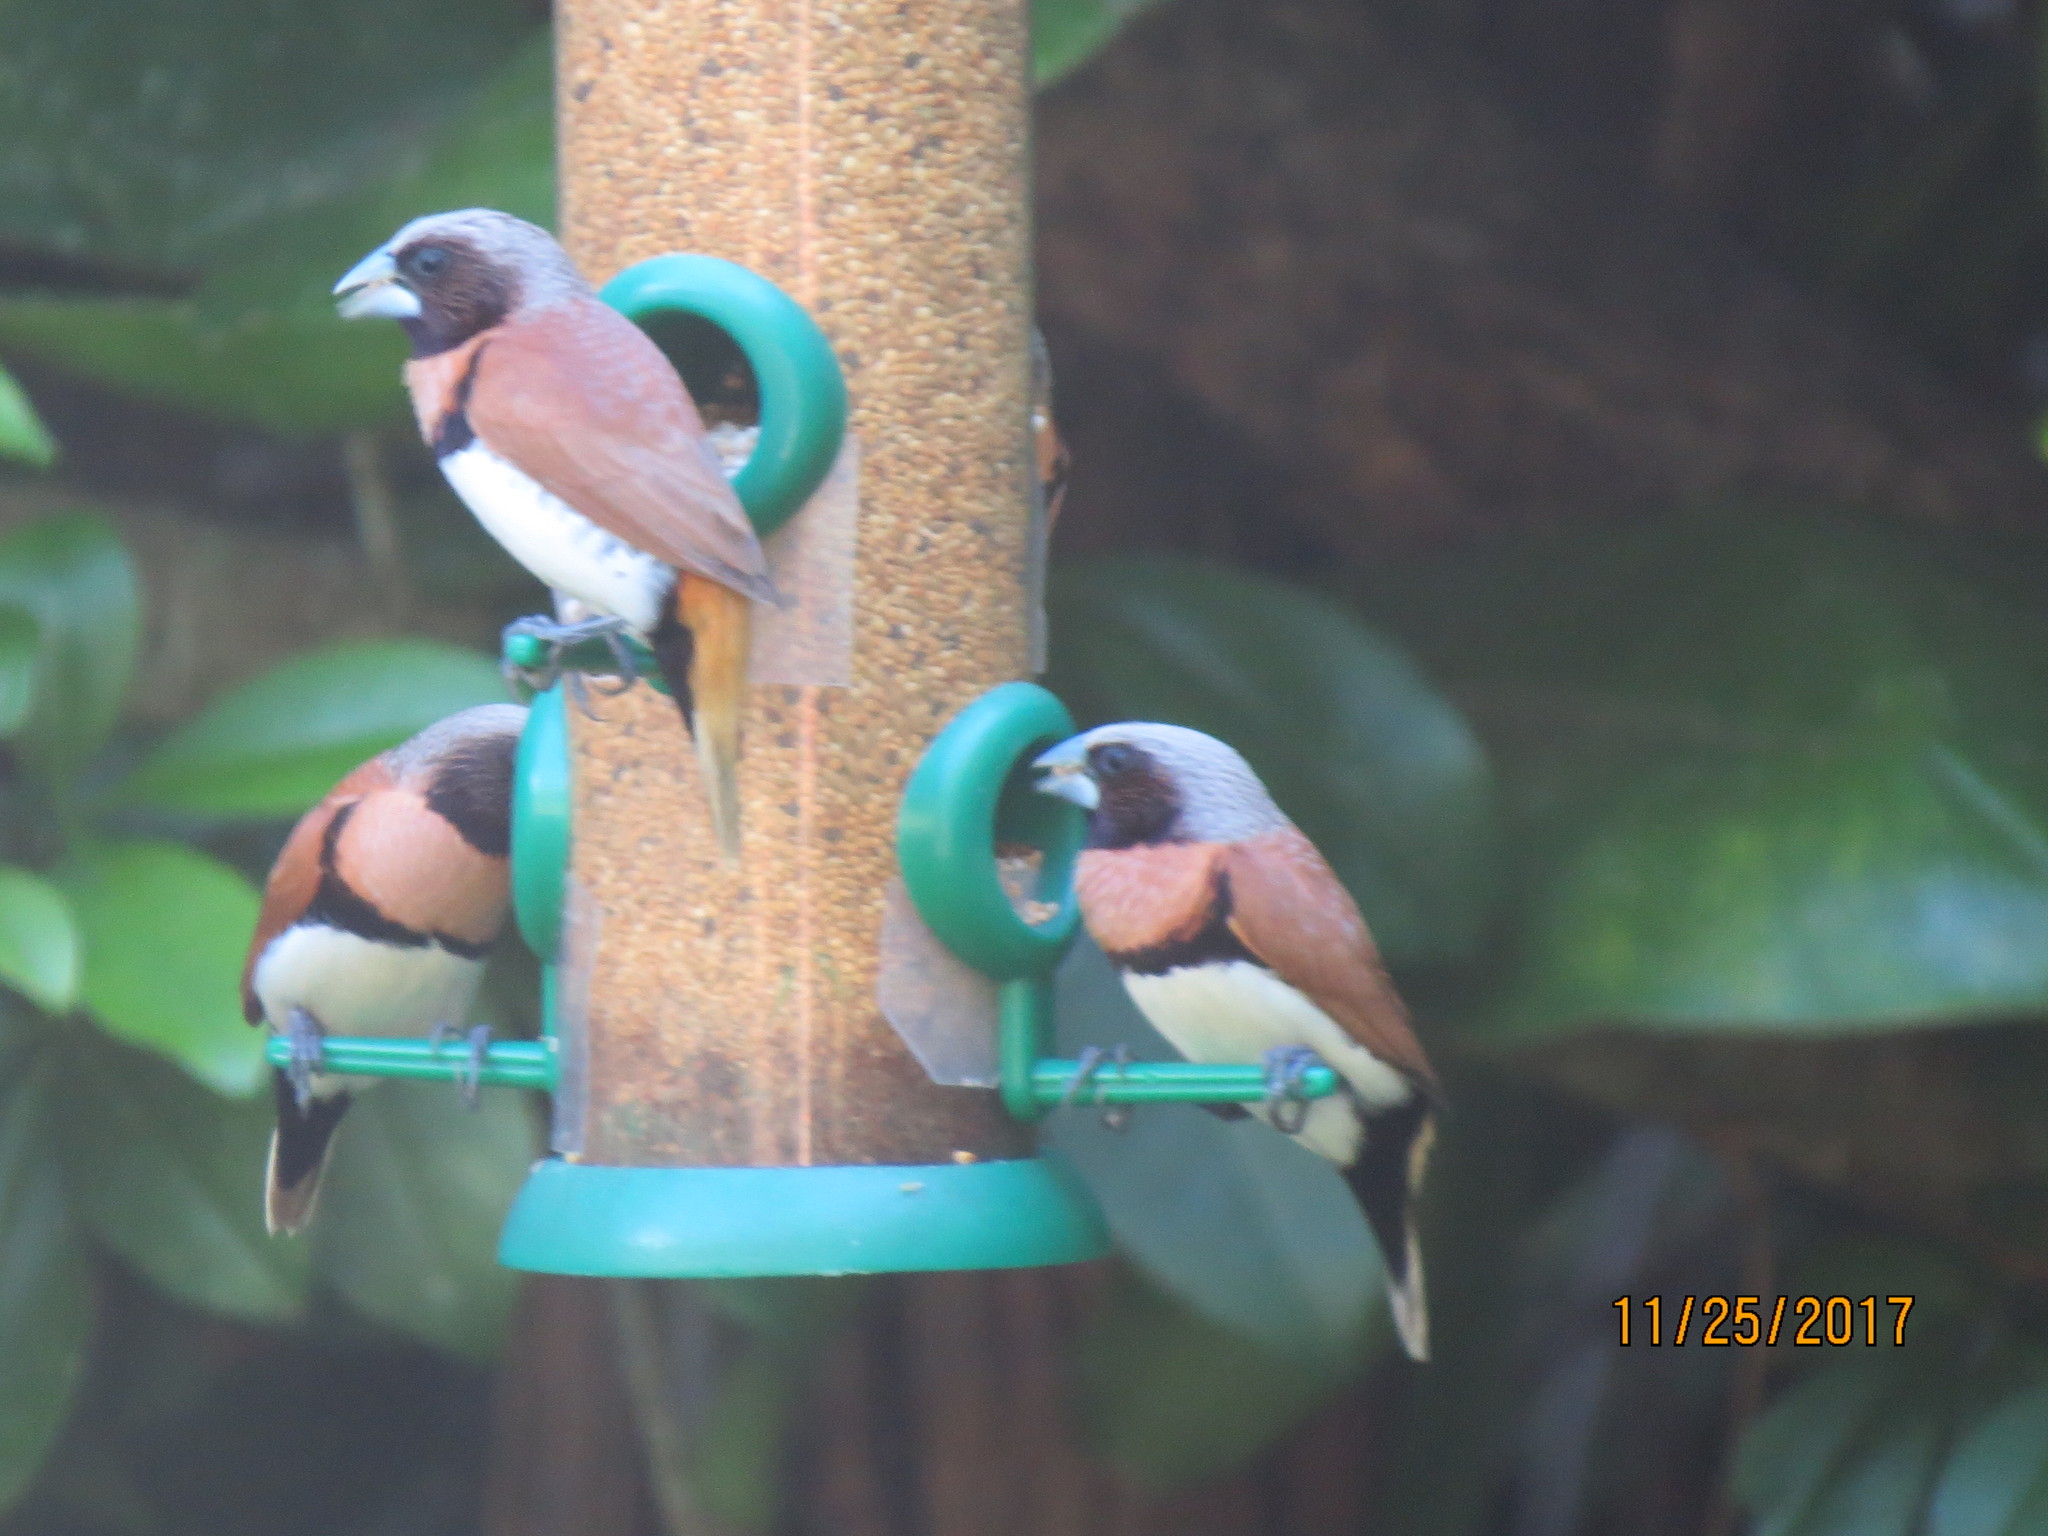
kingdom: Animalia
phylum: Chordata
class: Aves
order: Passeriformes
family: Estrildidae
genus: Lonchura
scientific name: Lonchura castaneothorax
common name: Chestnut-breasted mannikin
